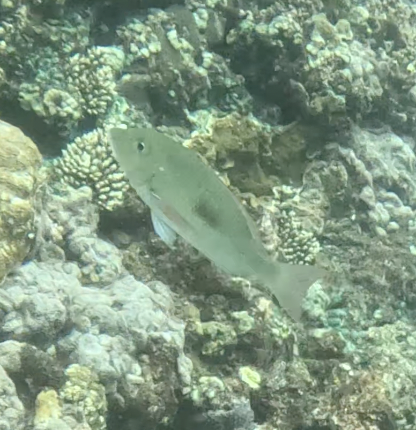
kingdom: Animalia
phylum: Chordata
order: Perciformes
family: Lethrinidae
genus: Lethrinus
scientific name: Lethrinus harak
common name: Blackspot emperor
